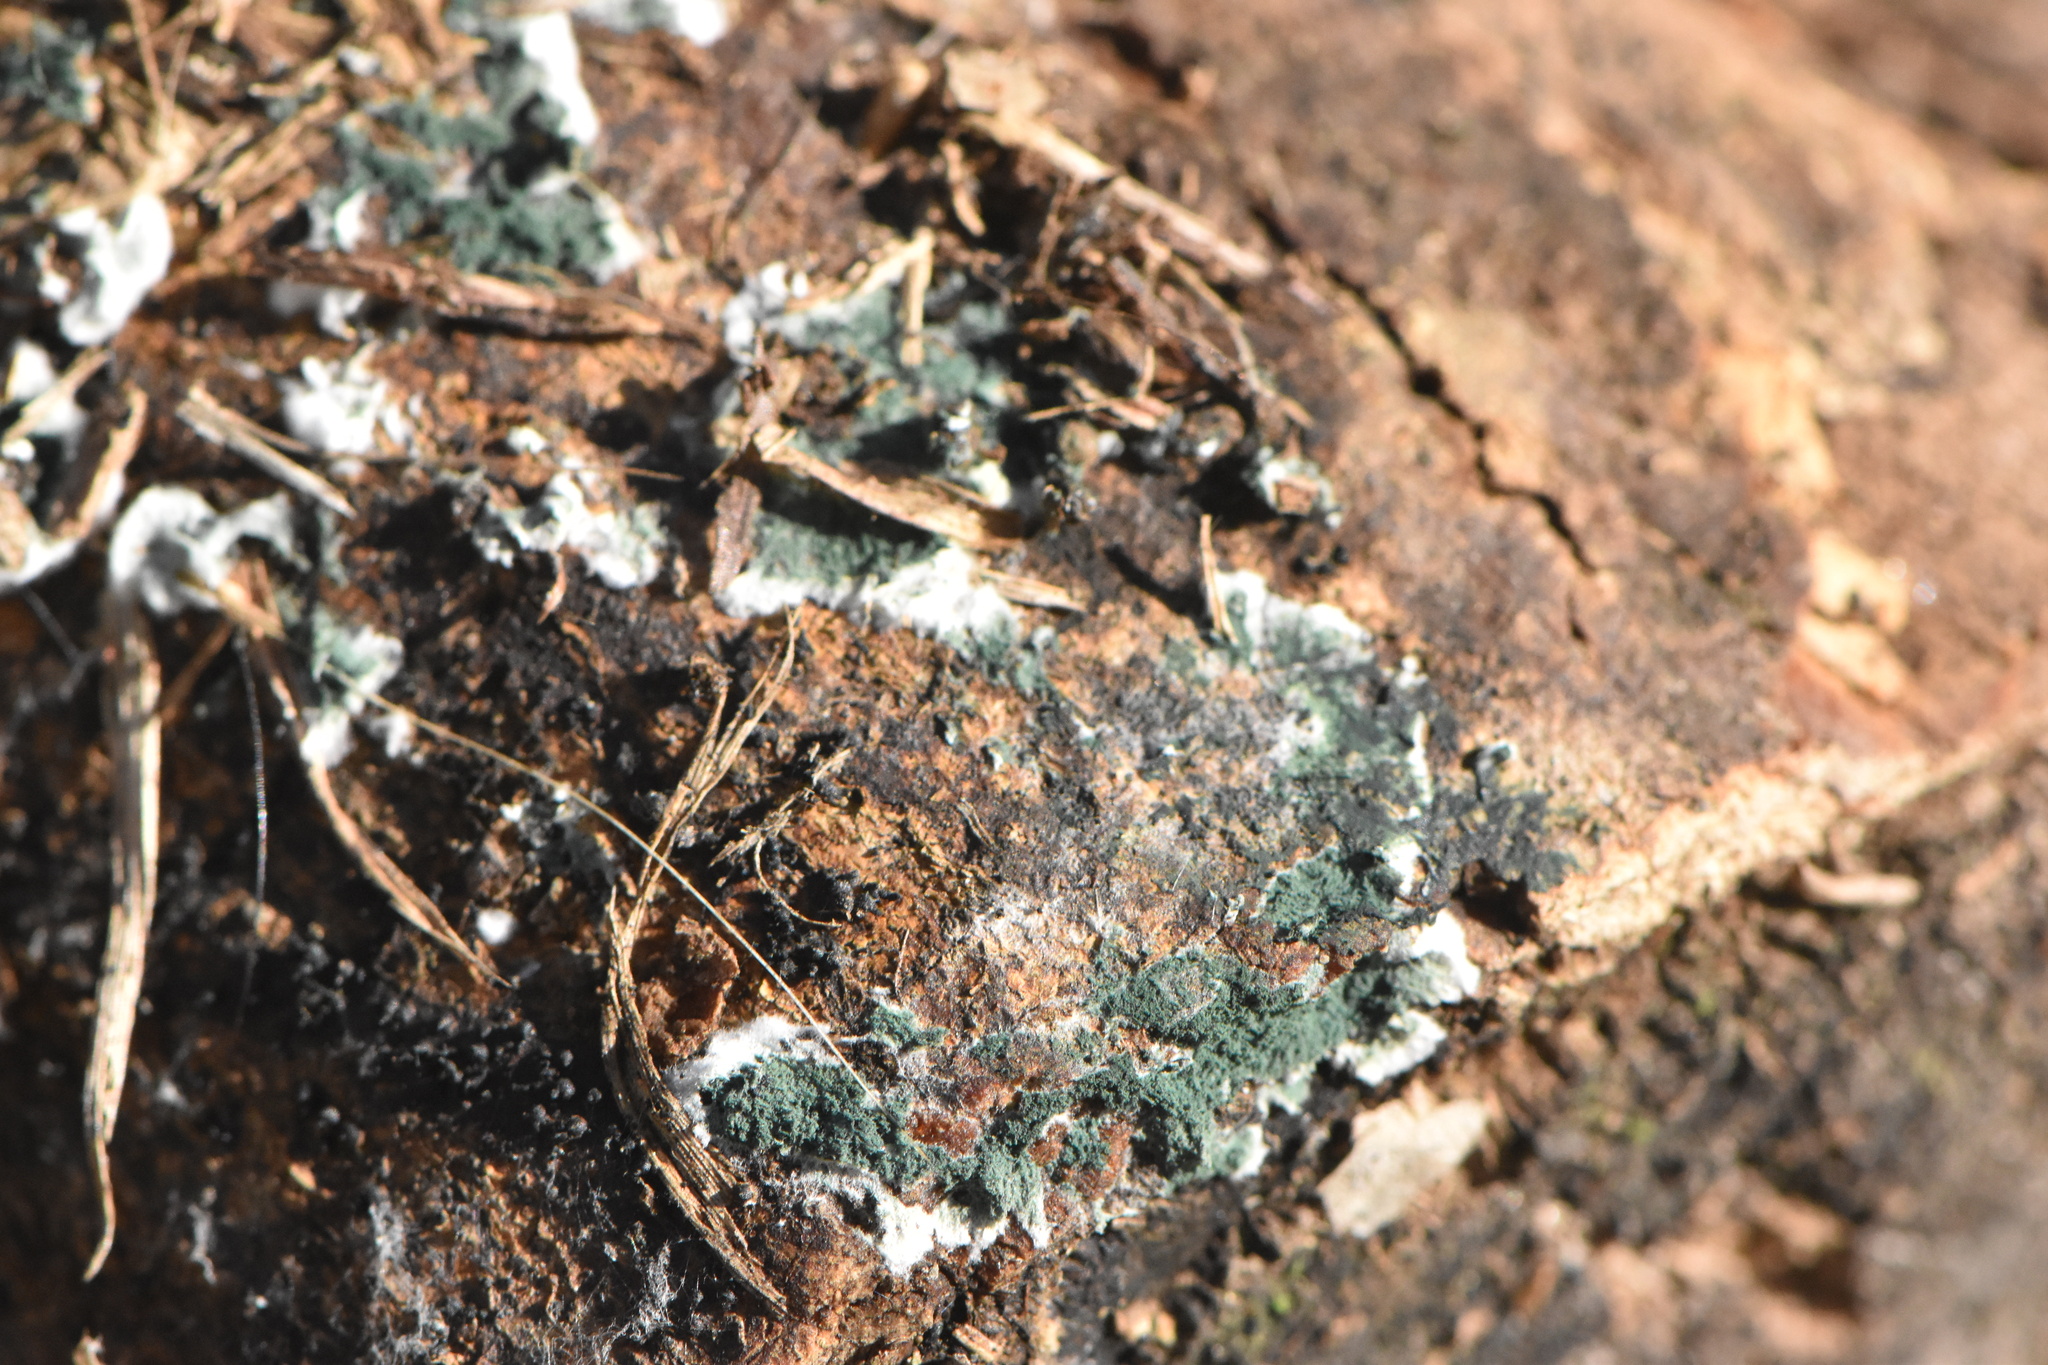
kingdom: Fungi
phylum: Ascomycota
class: Sordariomycetes
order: Hypocreales
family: Hypocreaceae
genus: Trichoderma
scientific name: Trichoderma viride
